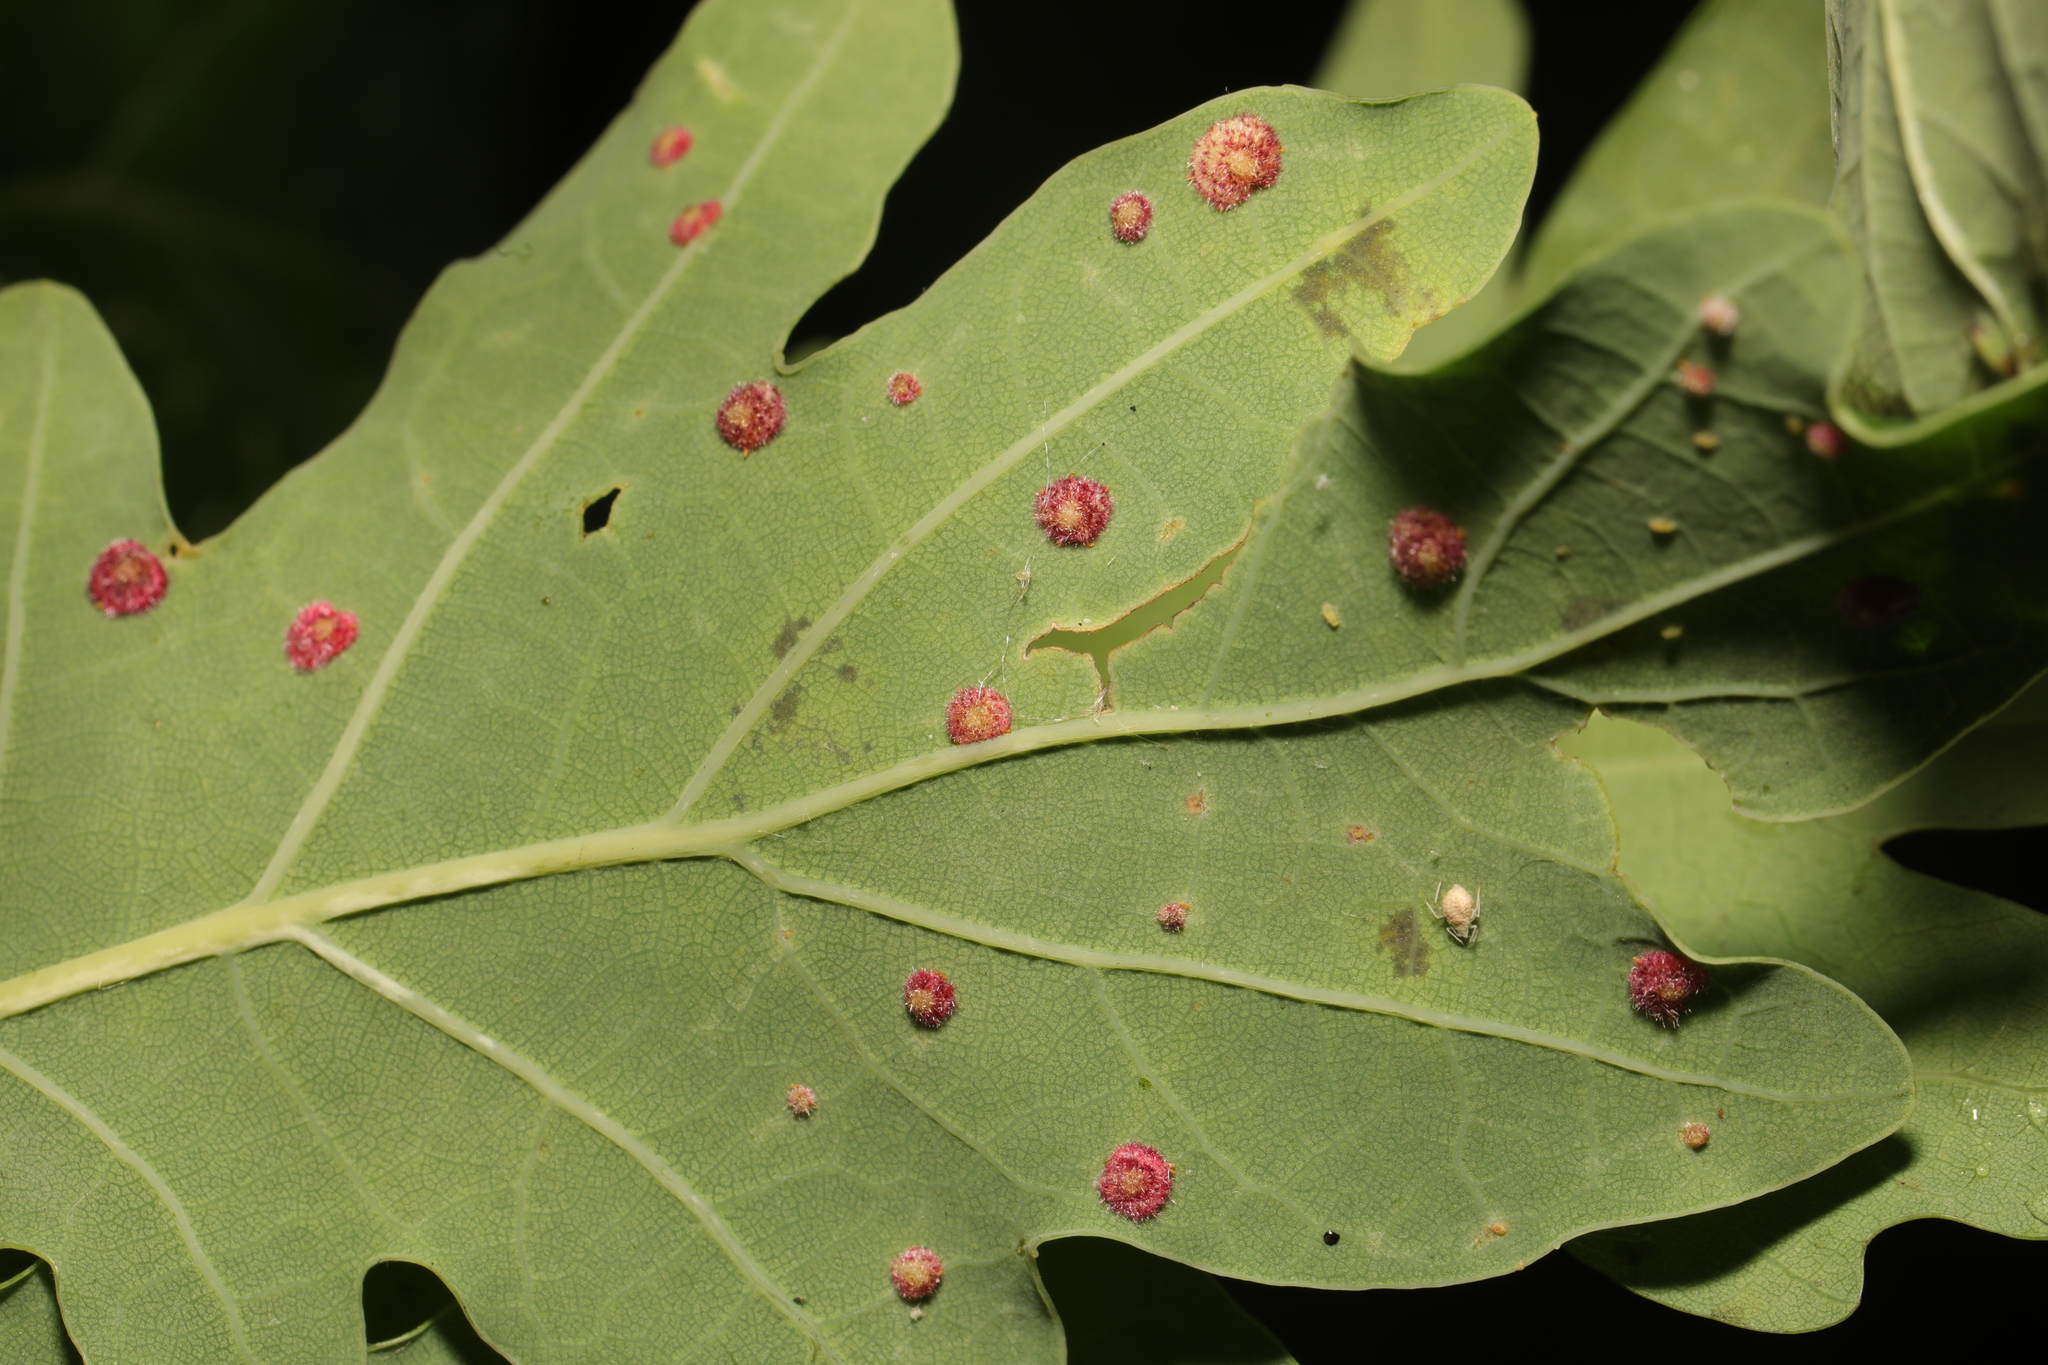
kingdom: Animalia
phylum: Arthropoda
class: Insecta
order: Hymenoptera
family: Cynipidae
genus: Neuroterus
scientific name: Neuroterus quercusbaccarum
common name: Common spangle gall
